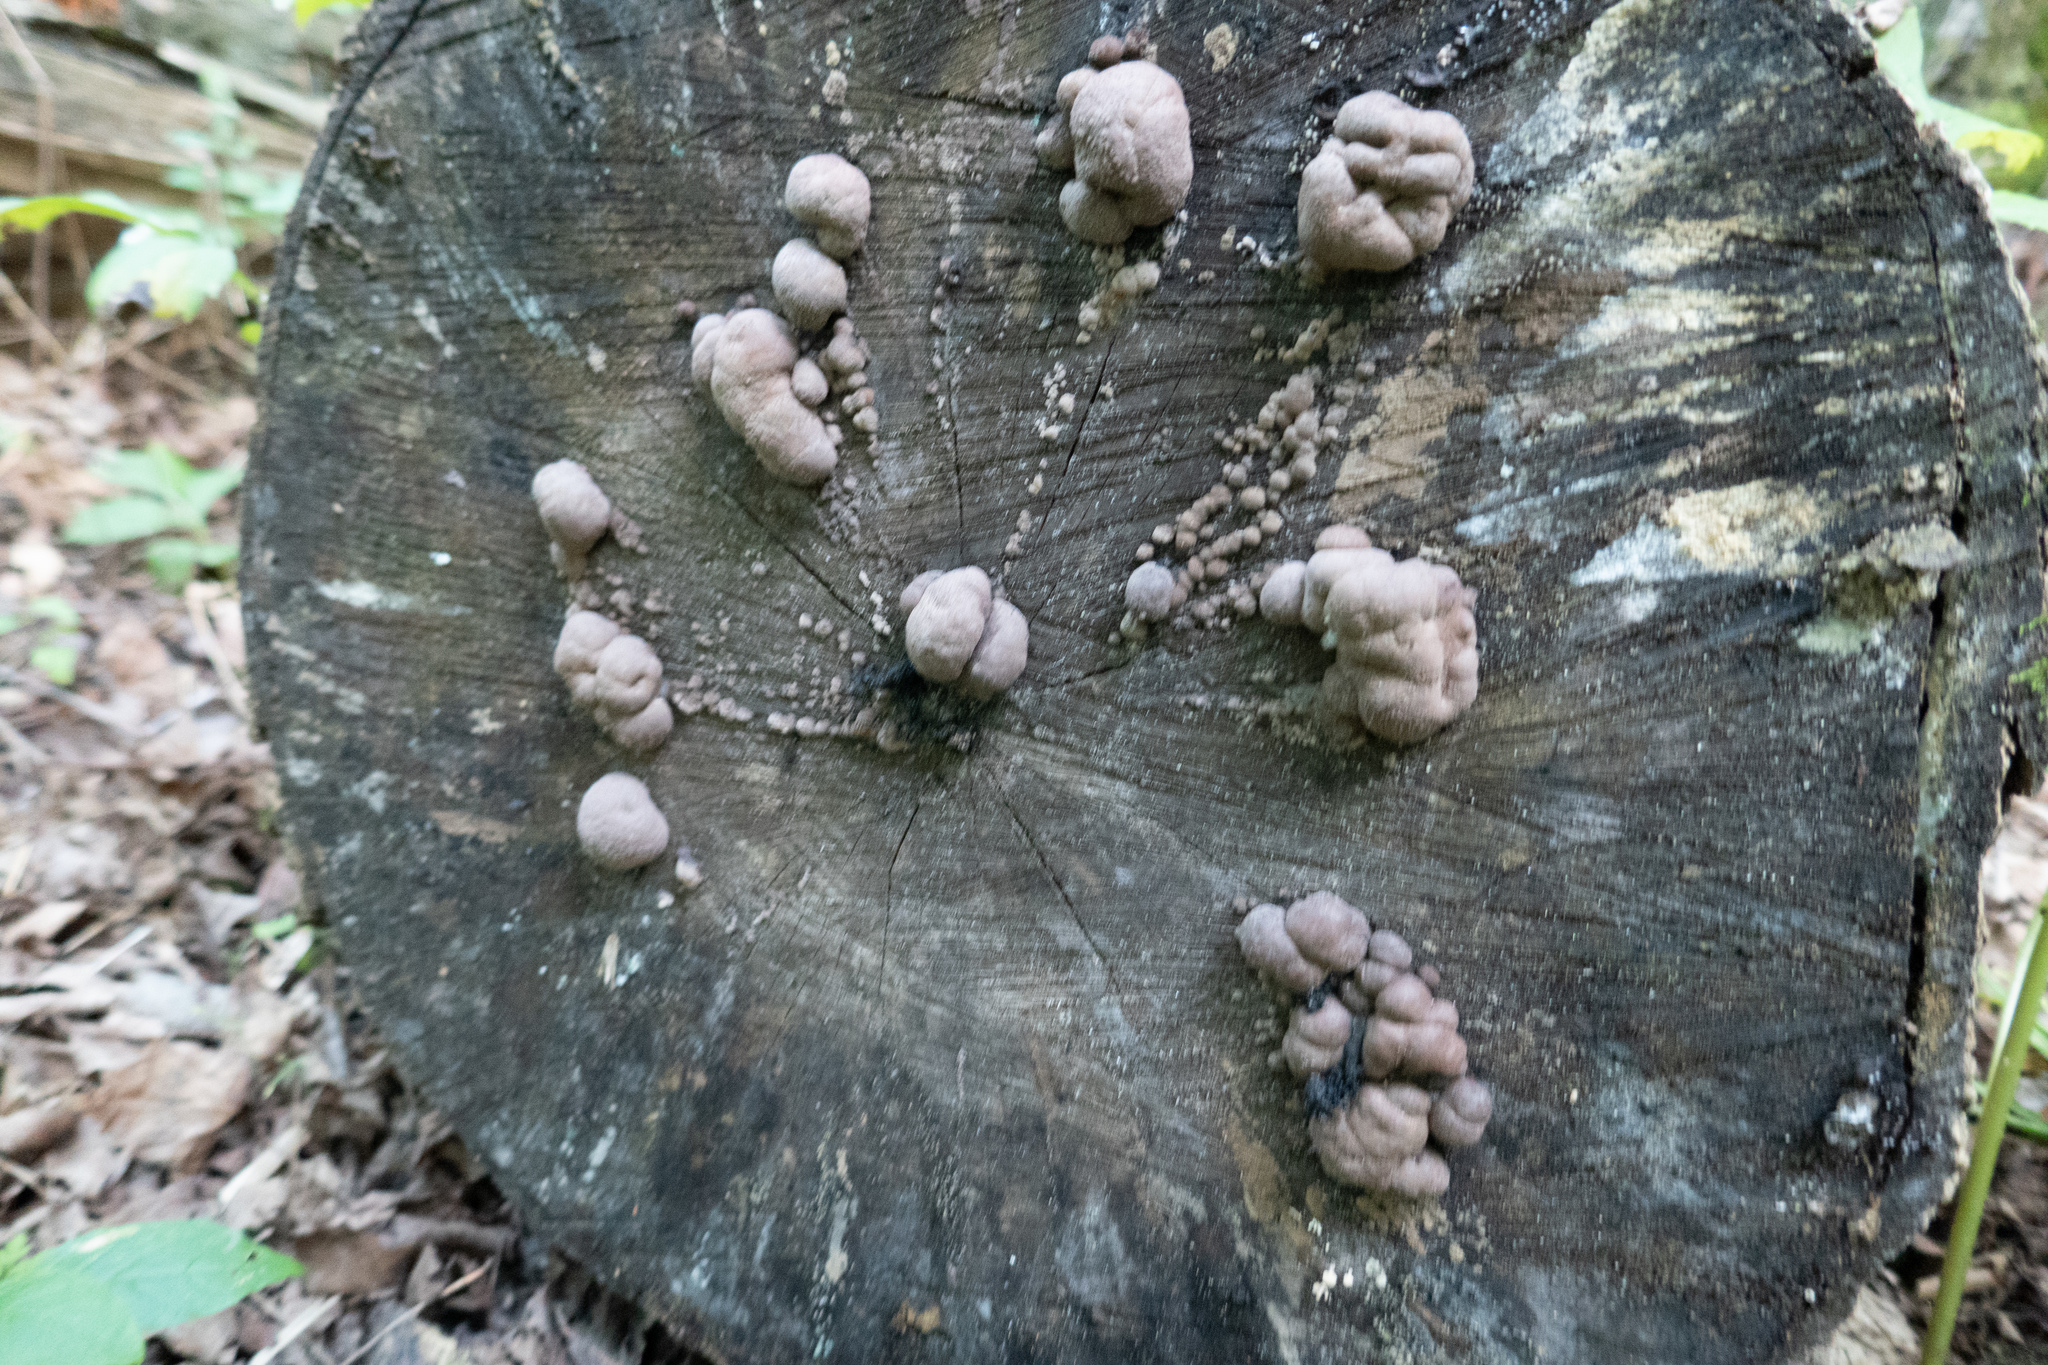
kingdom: Protozoa
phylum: Mycetozoa
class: Myxomycetes
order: Cribrariales
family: Tubiferaceae
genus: Lycogala
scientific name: Lycogala epidendrum
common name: Wolf's milk
